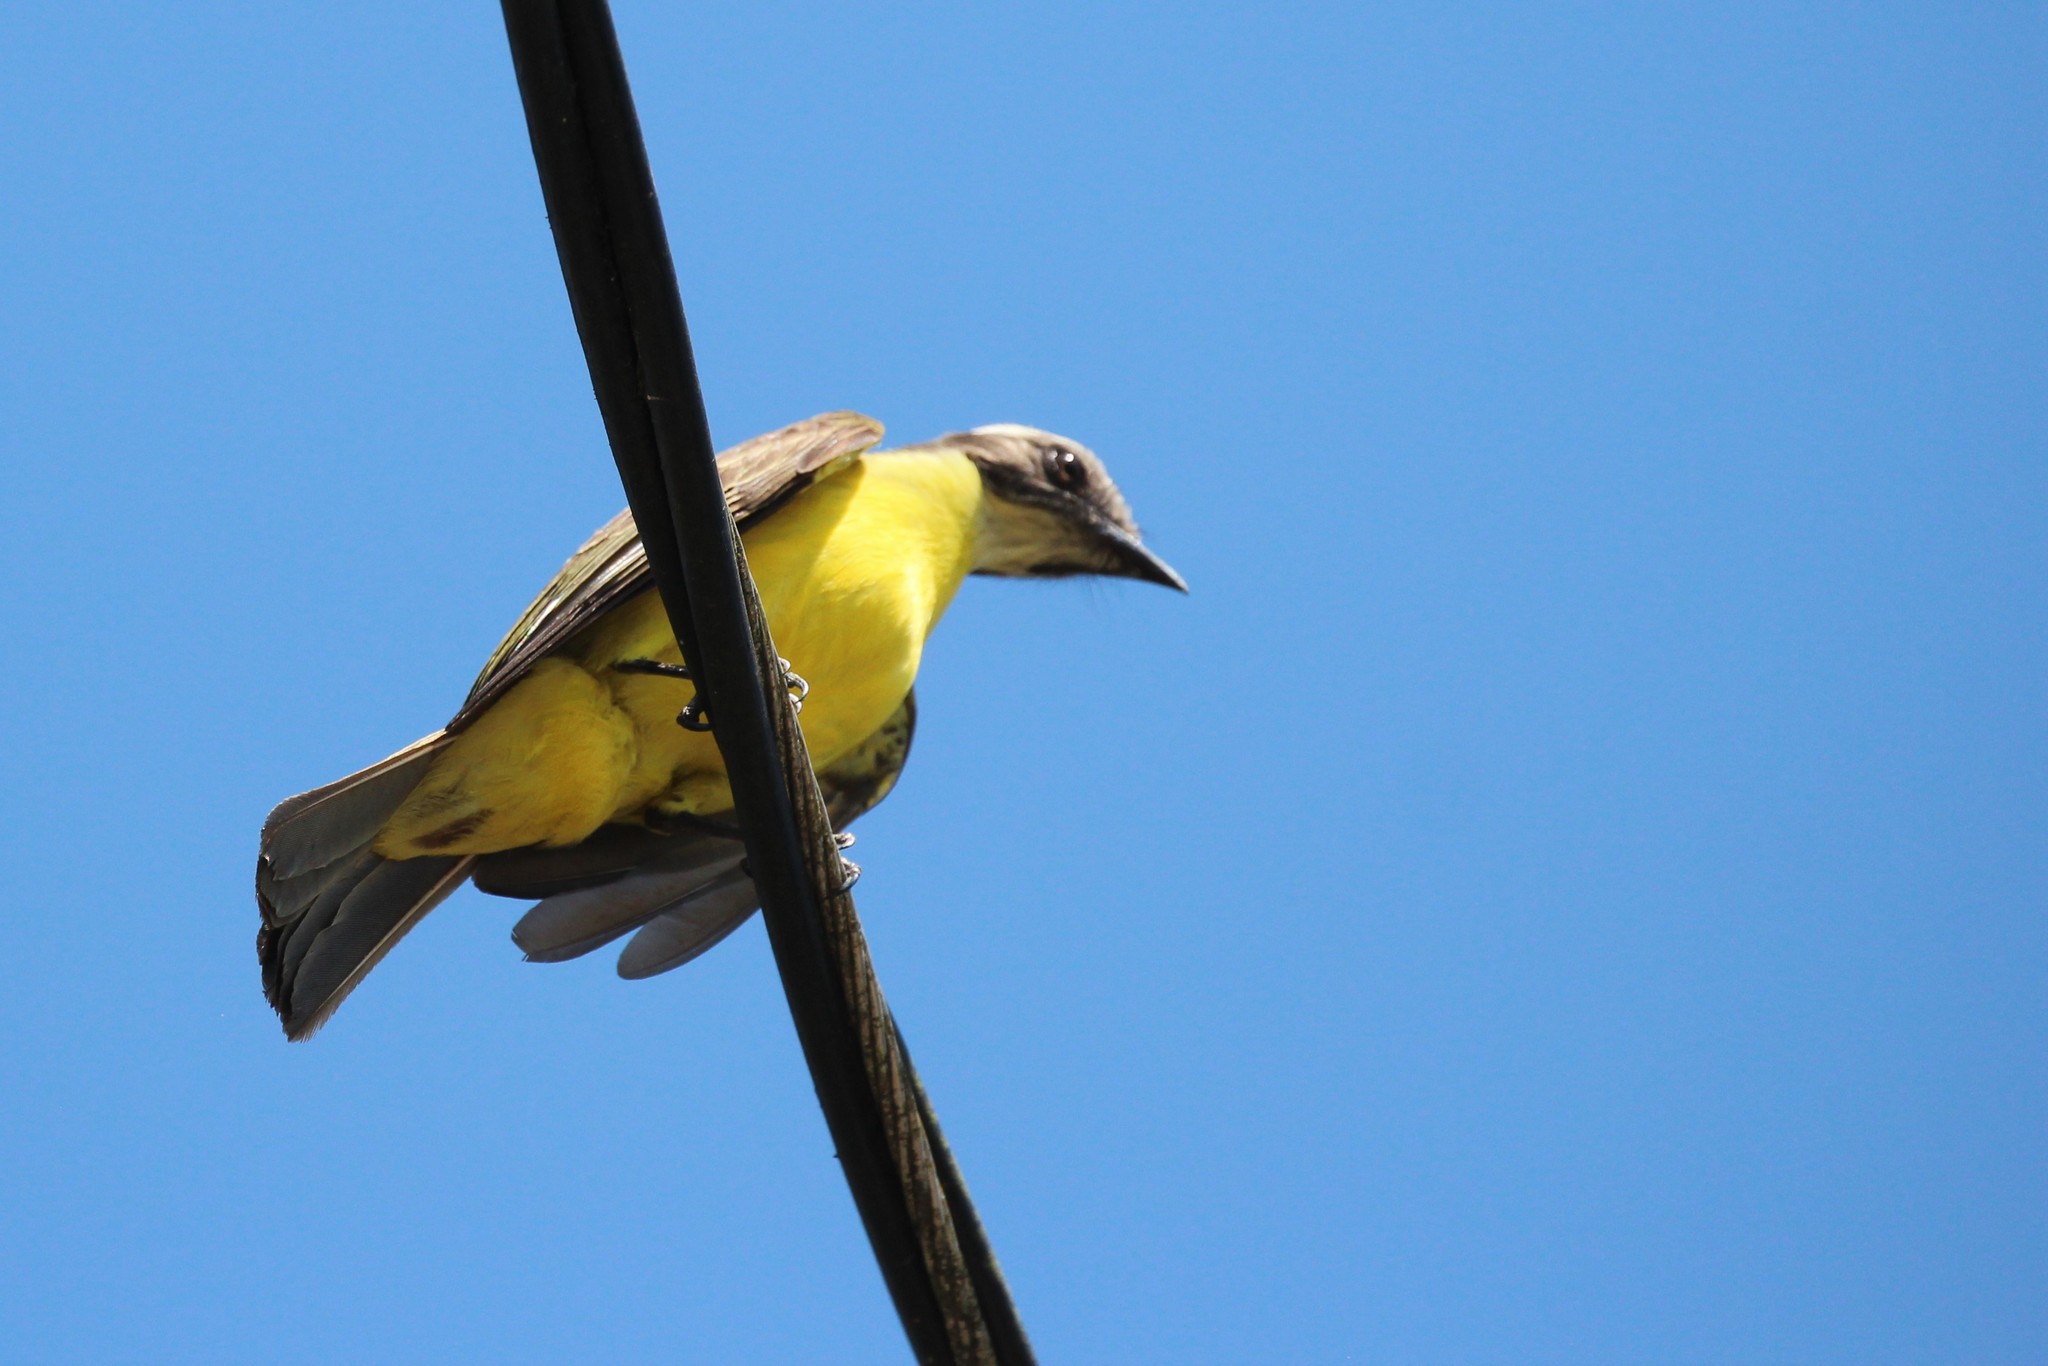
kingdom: Animalia
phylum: Chordata
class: Aves
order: Passeriformes
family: Tyrannidae
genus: Myiozetetes
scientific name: Myiozetetes similis
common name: Social flycatcher
